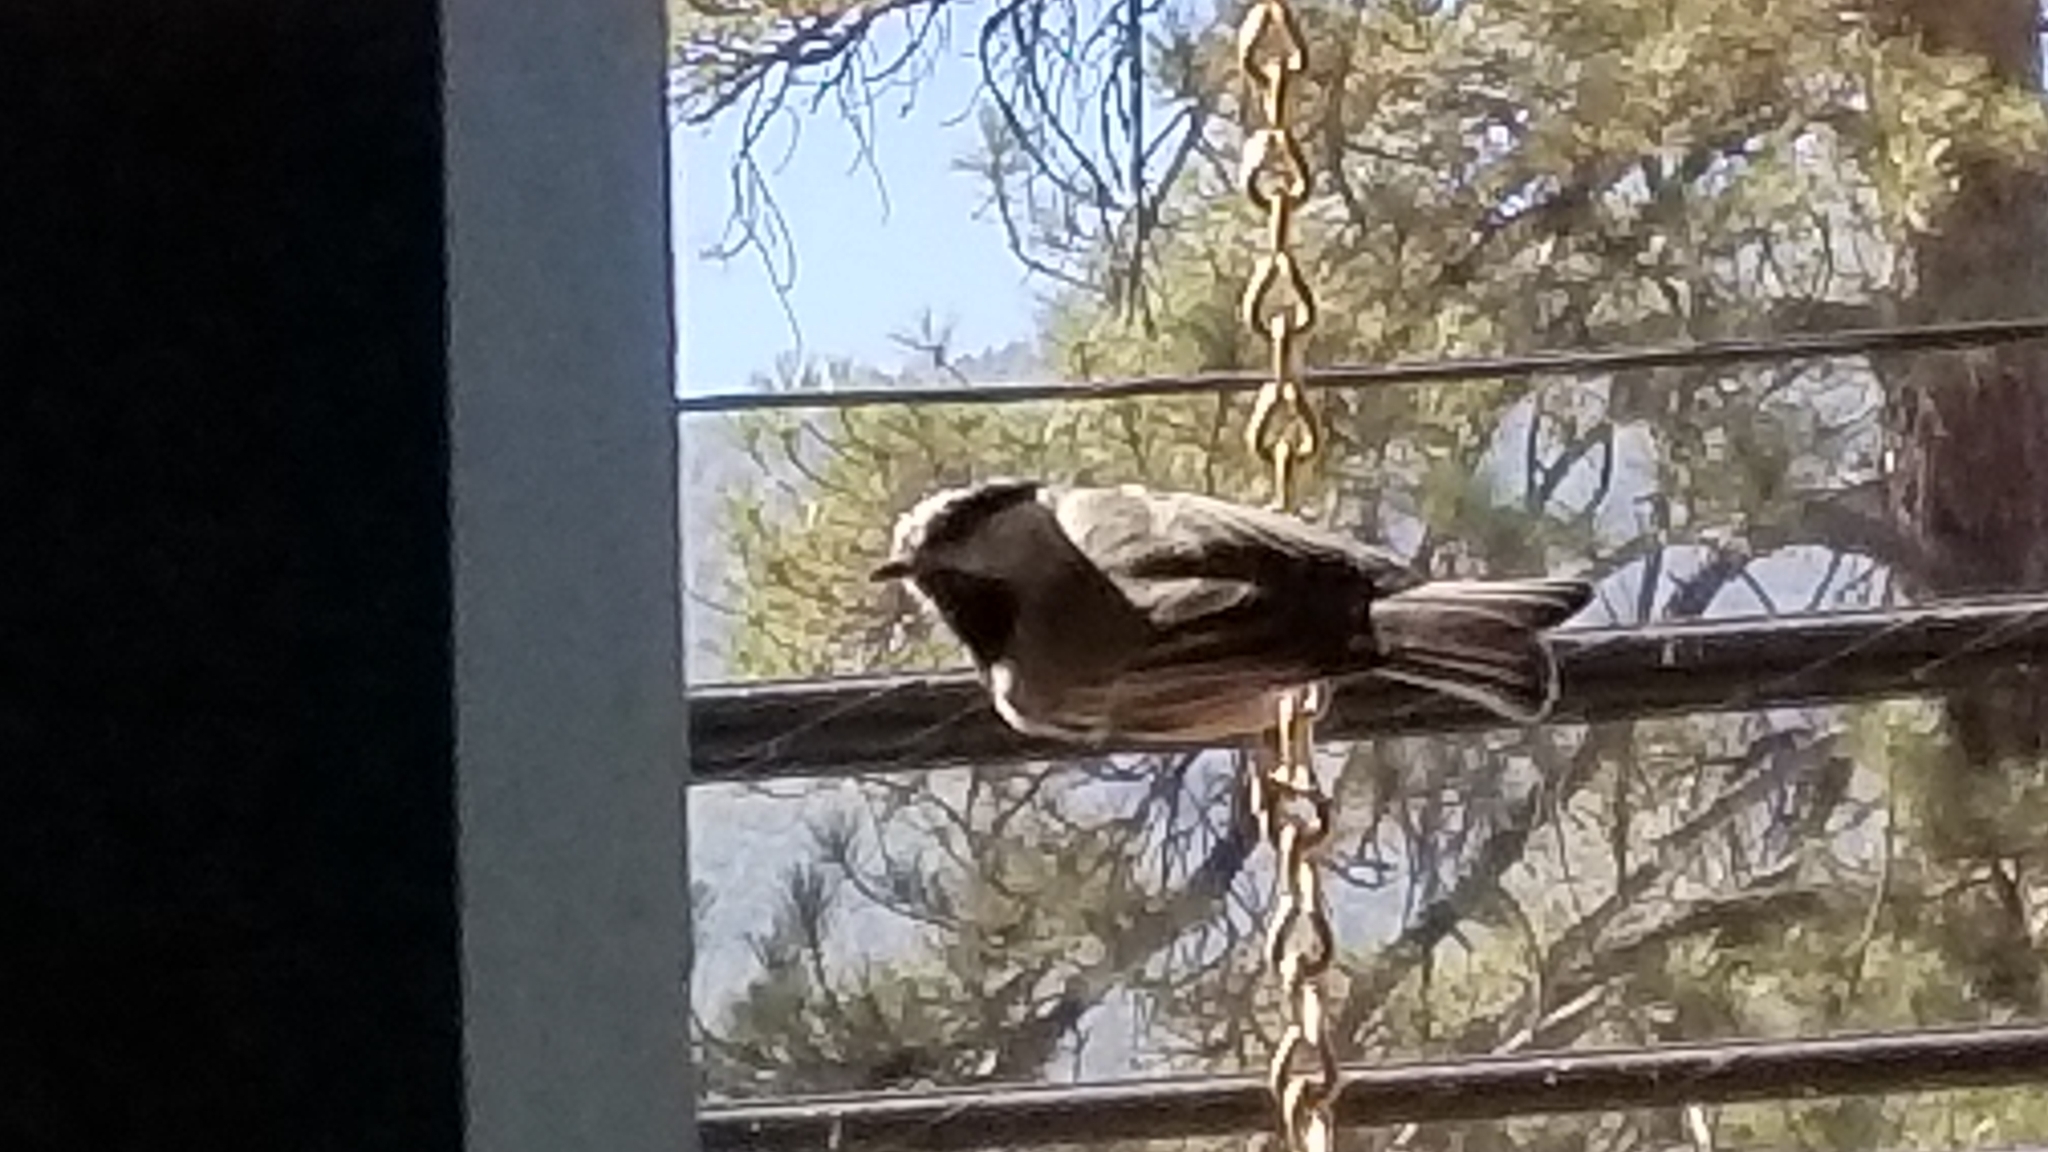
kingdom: Animalia
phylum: Chordata
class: Aves
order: Passeriformes
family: Paridae
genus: Poecile
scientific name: Poecile gambeli
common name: Mountain chickadee
